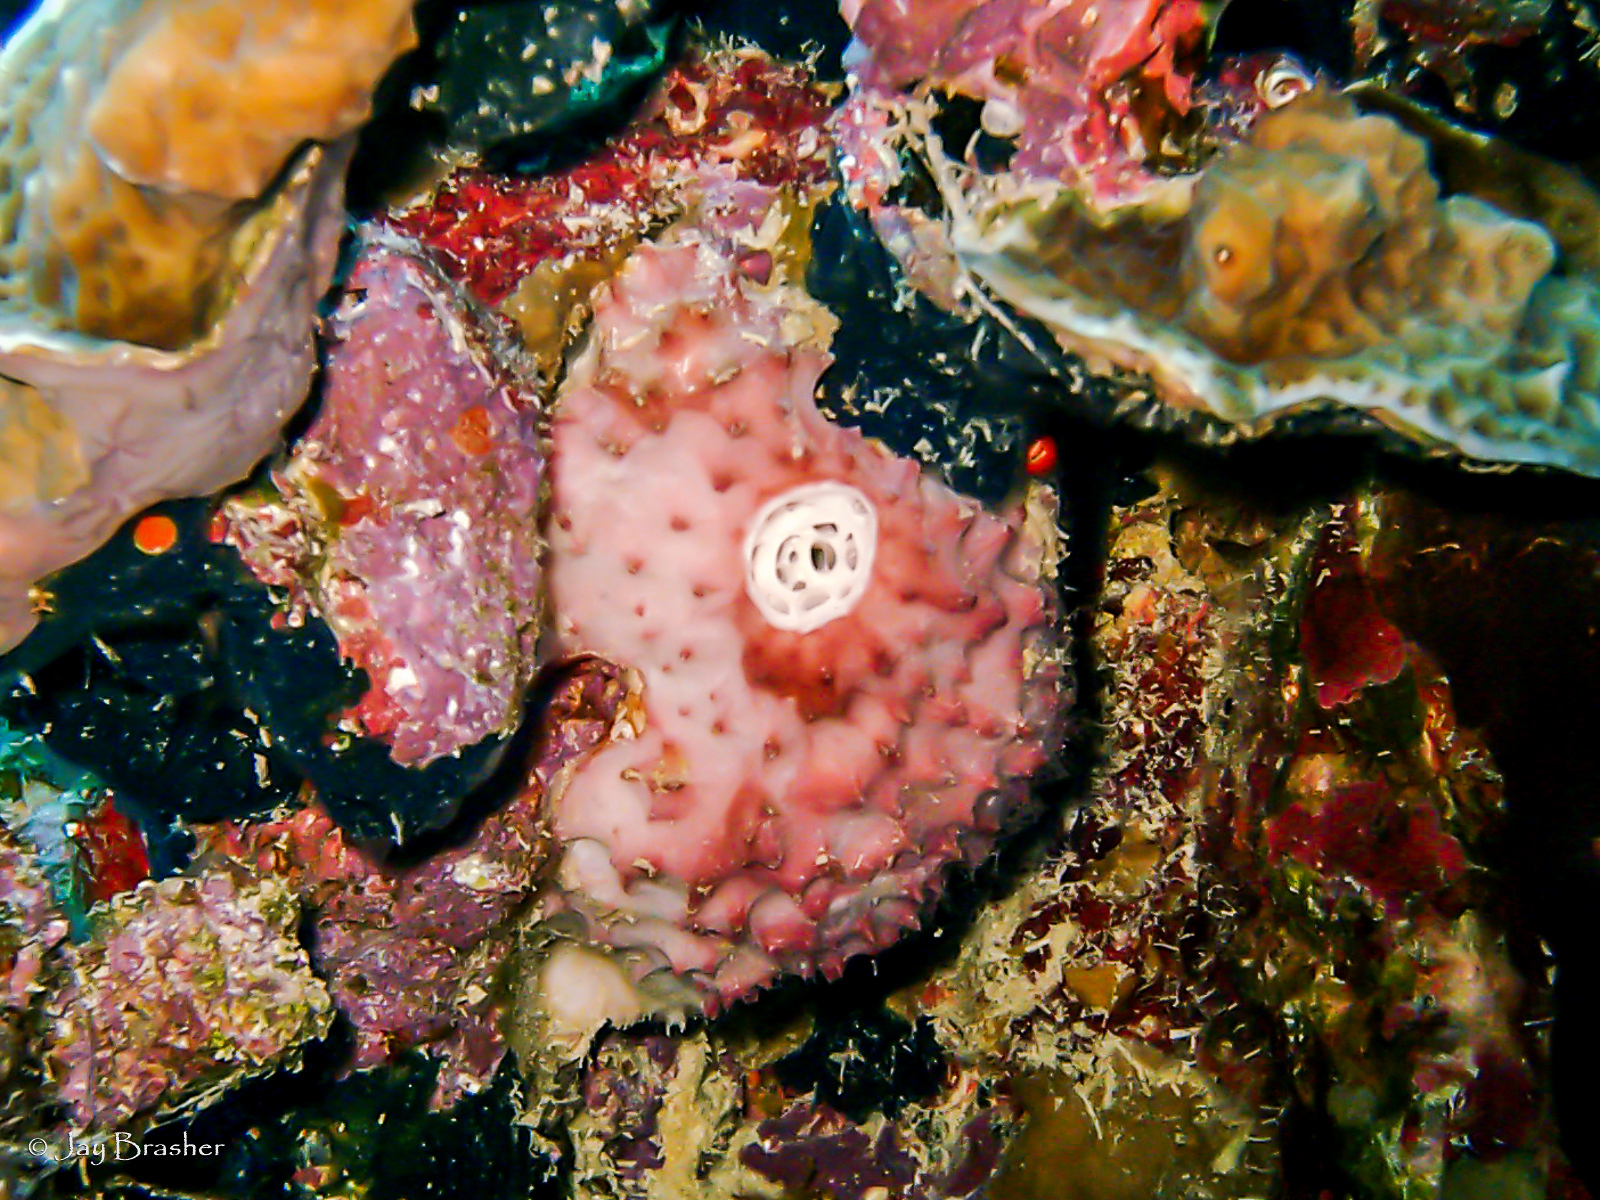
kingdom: Animalia
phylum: Porifera
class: Demospongiae
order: Dictyoceratida
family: Irciniidae
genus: Ircinia
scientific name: Ircinia felix
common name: Stinker sponge
